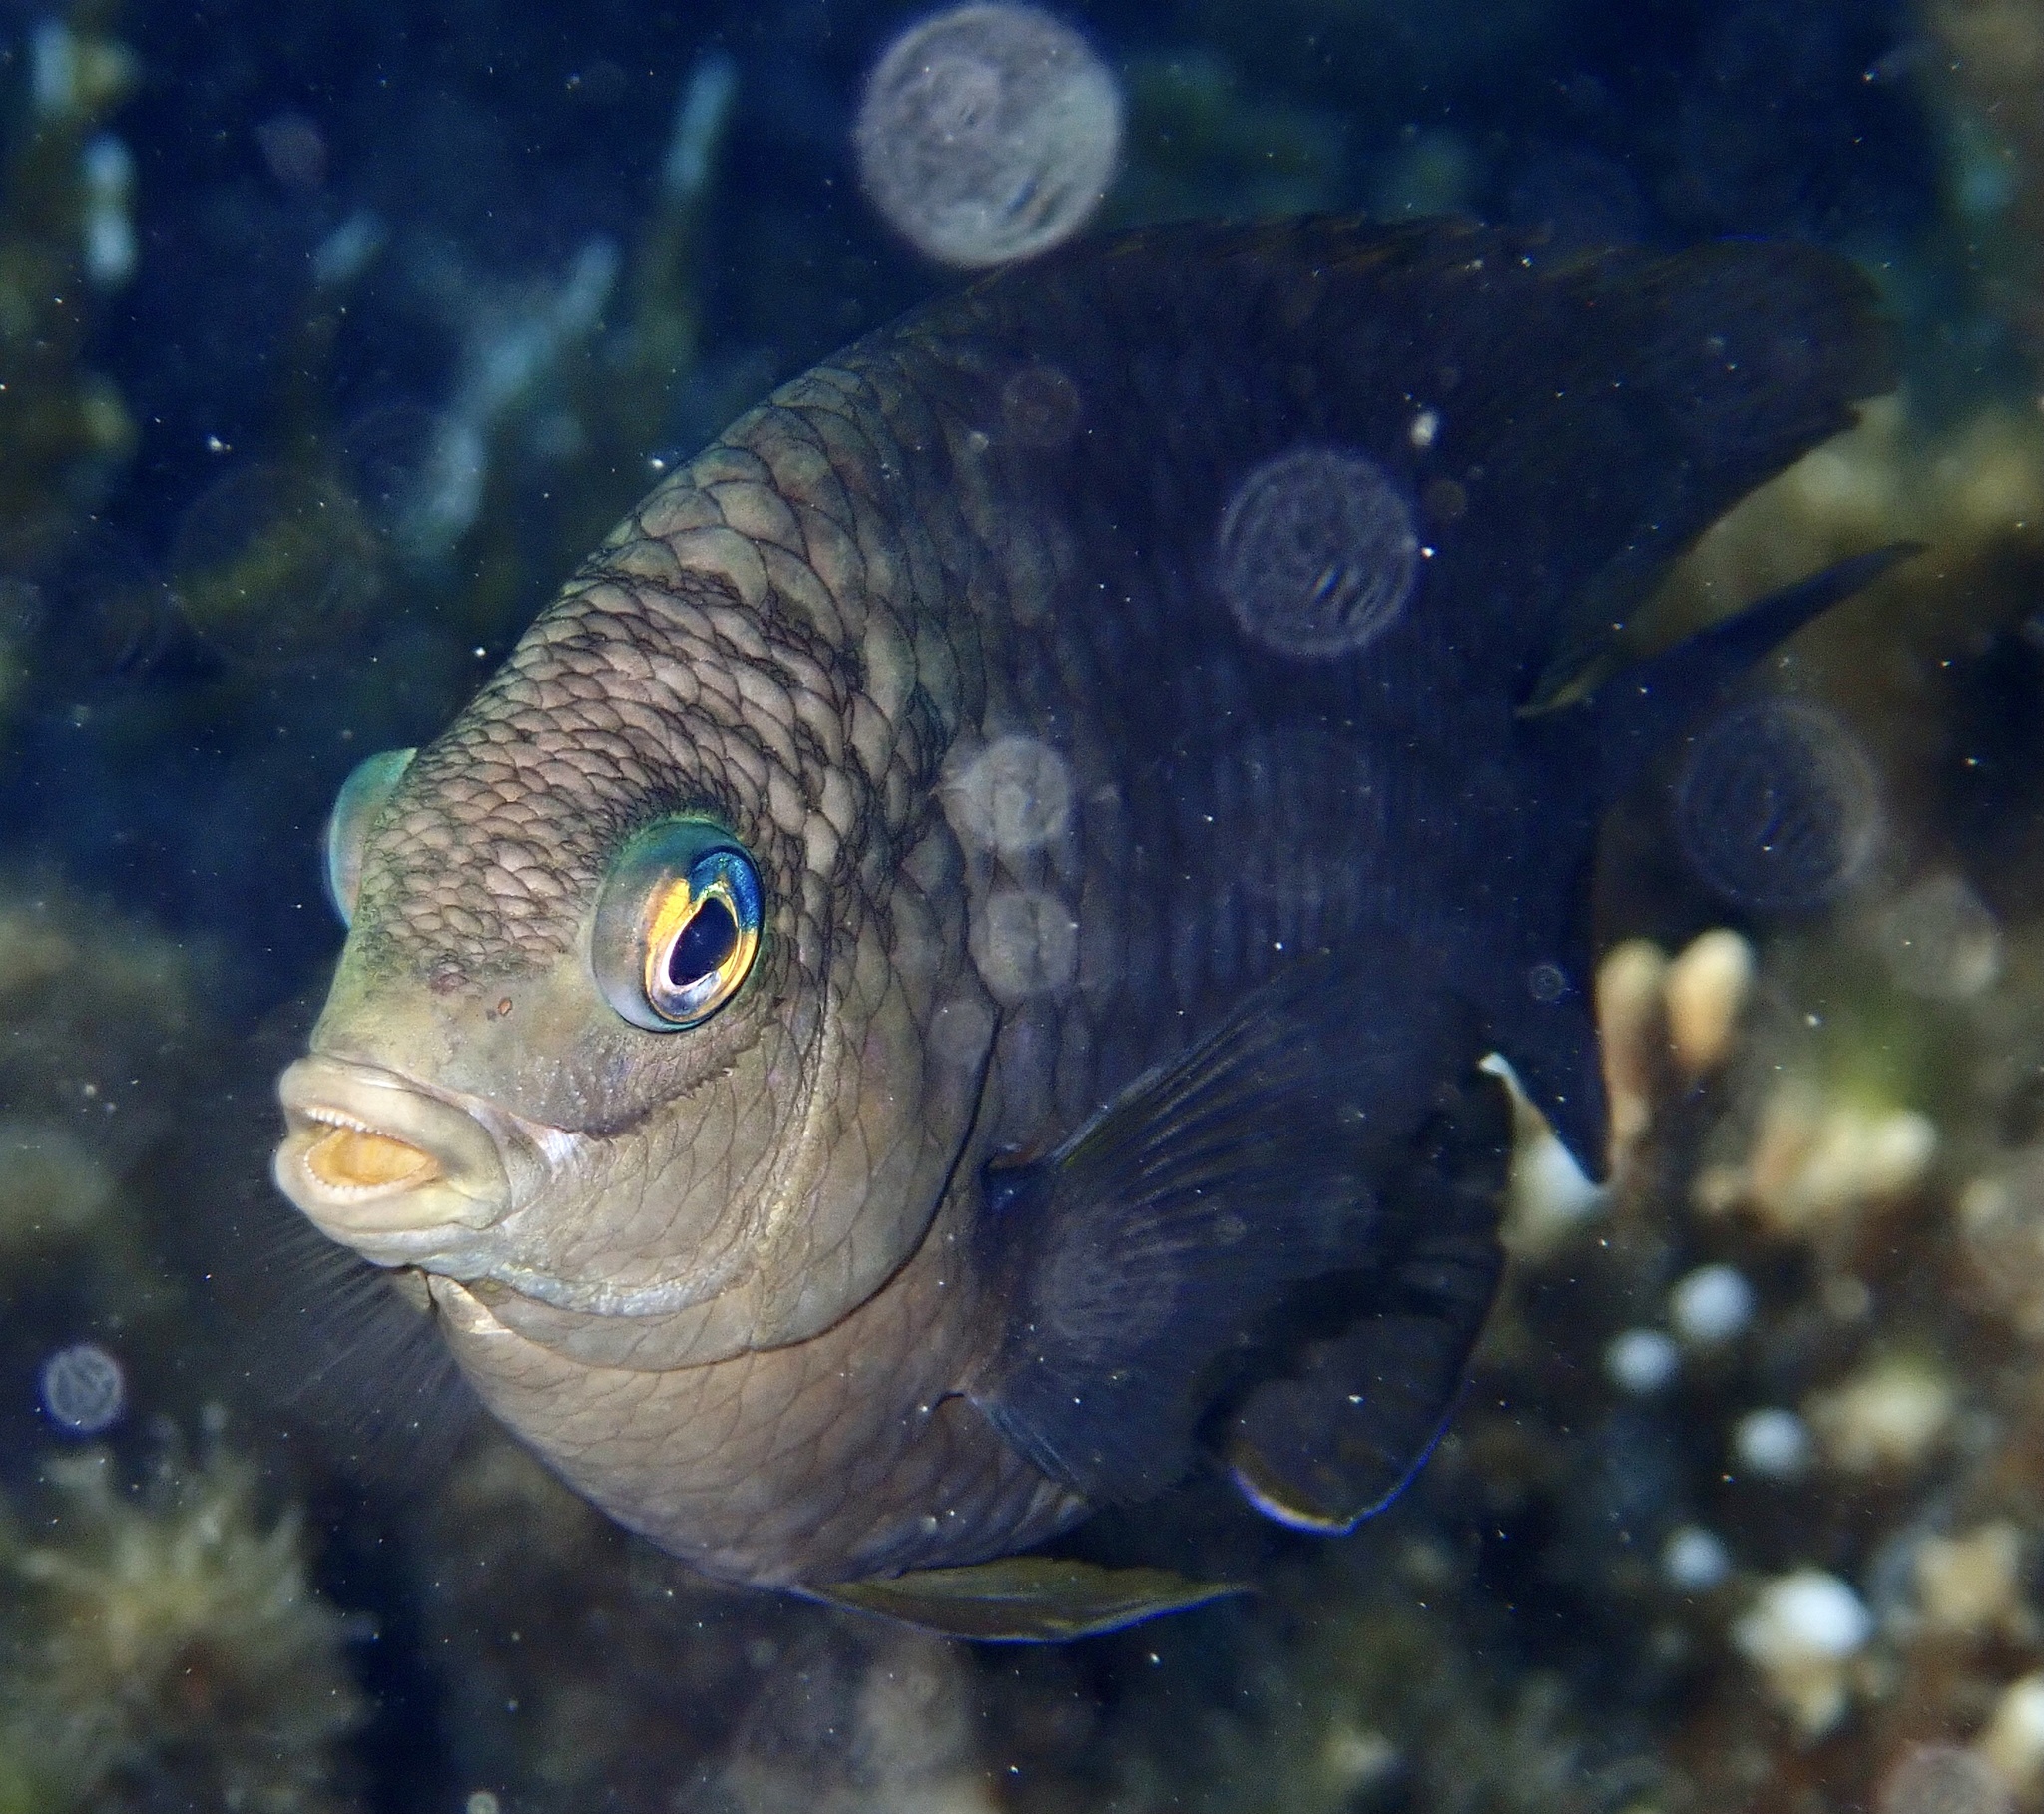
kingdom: Animalia
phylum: Chordata
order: Perciformes
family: Pomacentridae
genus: Stegastes
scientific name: Stegastes nigricans
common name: Dusky gregory
